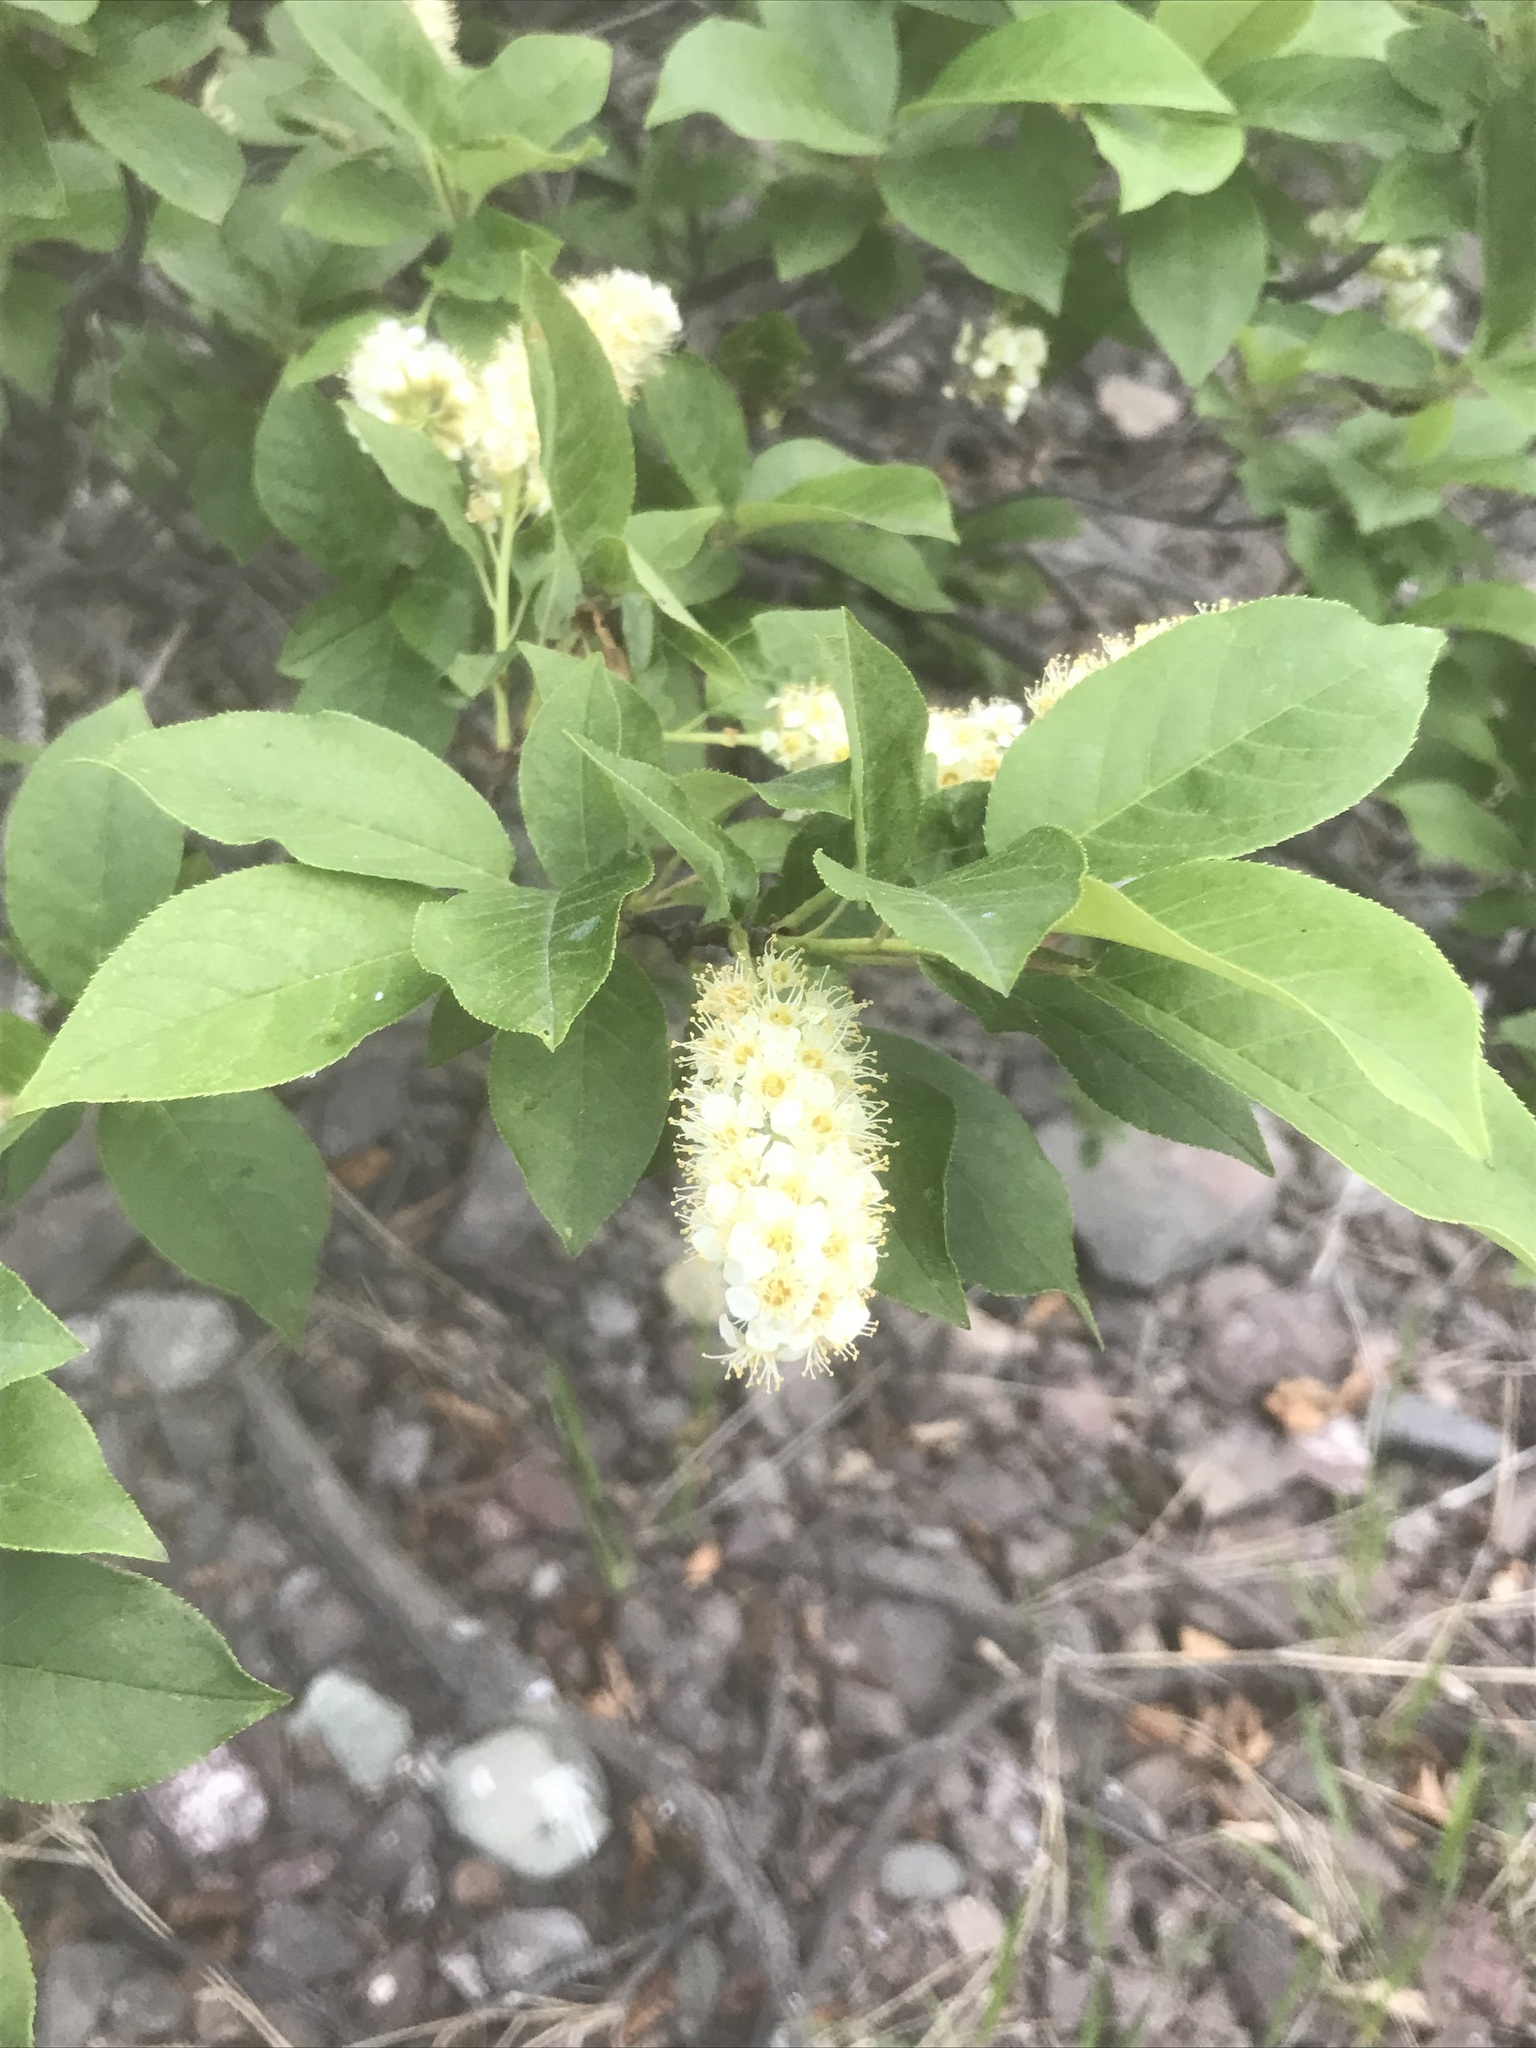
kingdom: Plantae
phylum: Tracheophyta
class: Magnoliopsida
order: Rosales
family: Rosaceae
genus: Prunus
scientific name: Prunus virginiana
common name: Chokecherry
